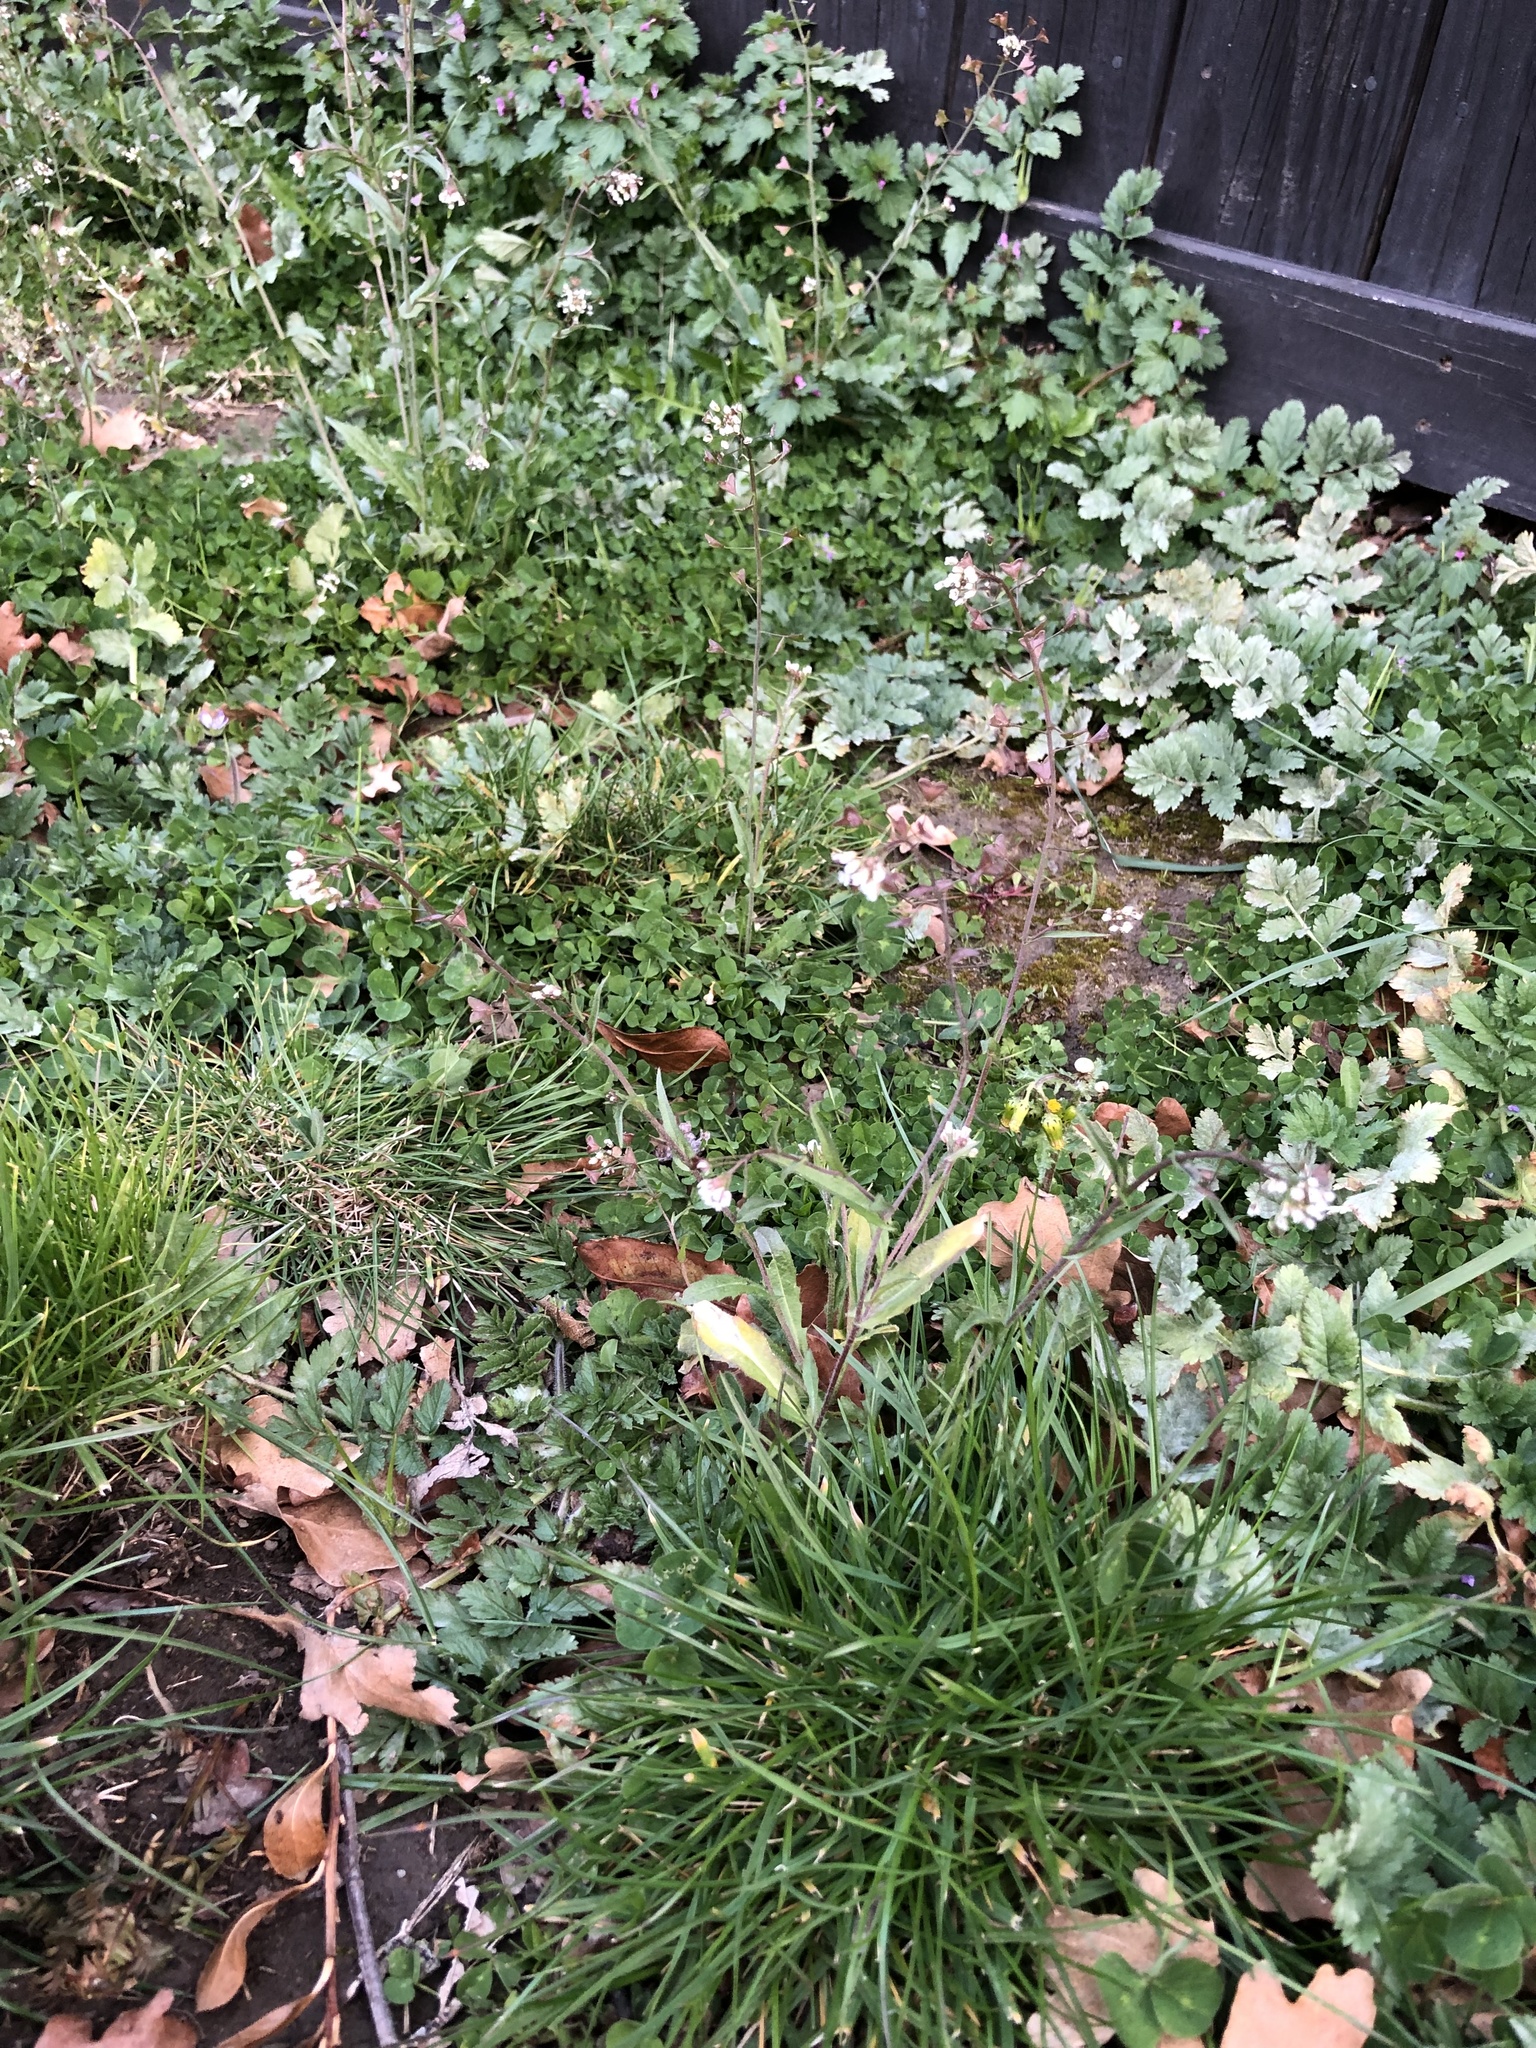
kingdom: Plantae
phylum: Tracheophyta
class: Magnoliopsida
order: Brassicales
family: Brassicaceae
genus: Capsella
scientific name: Capsella bursa-pastoris
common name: Shepherd's purse
